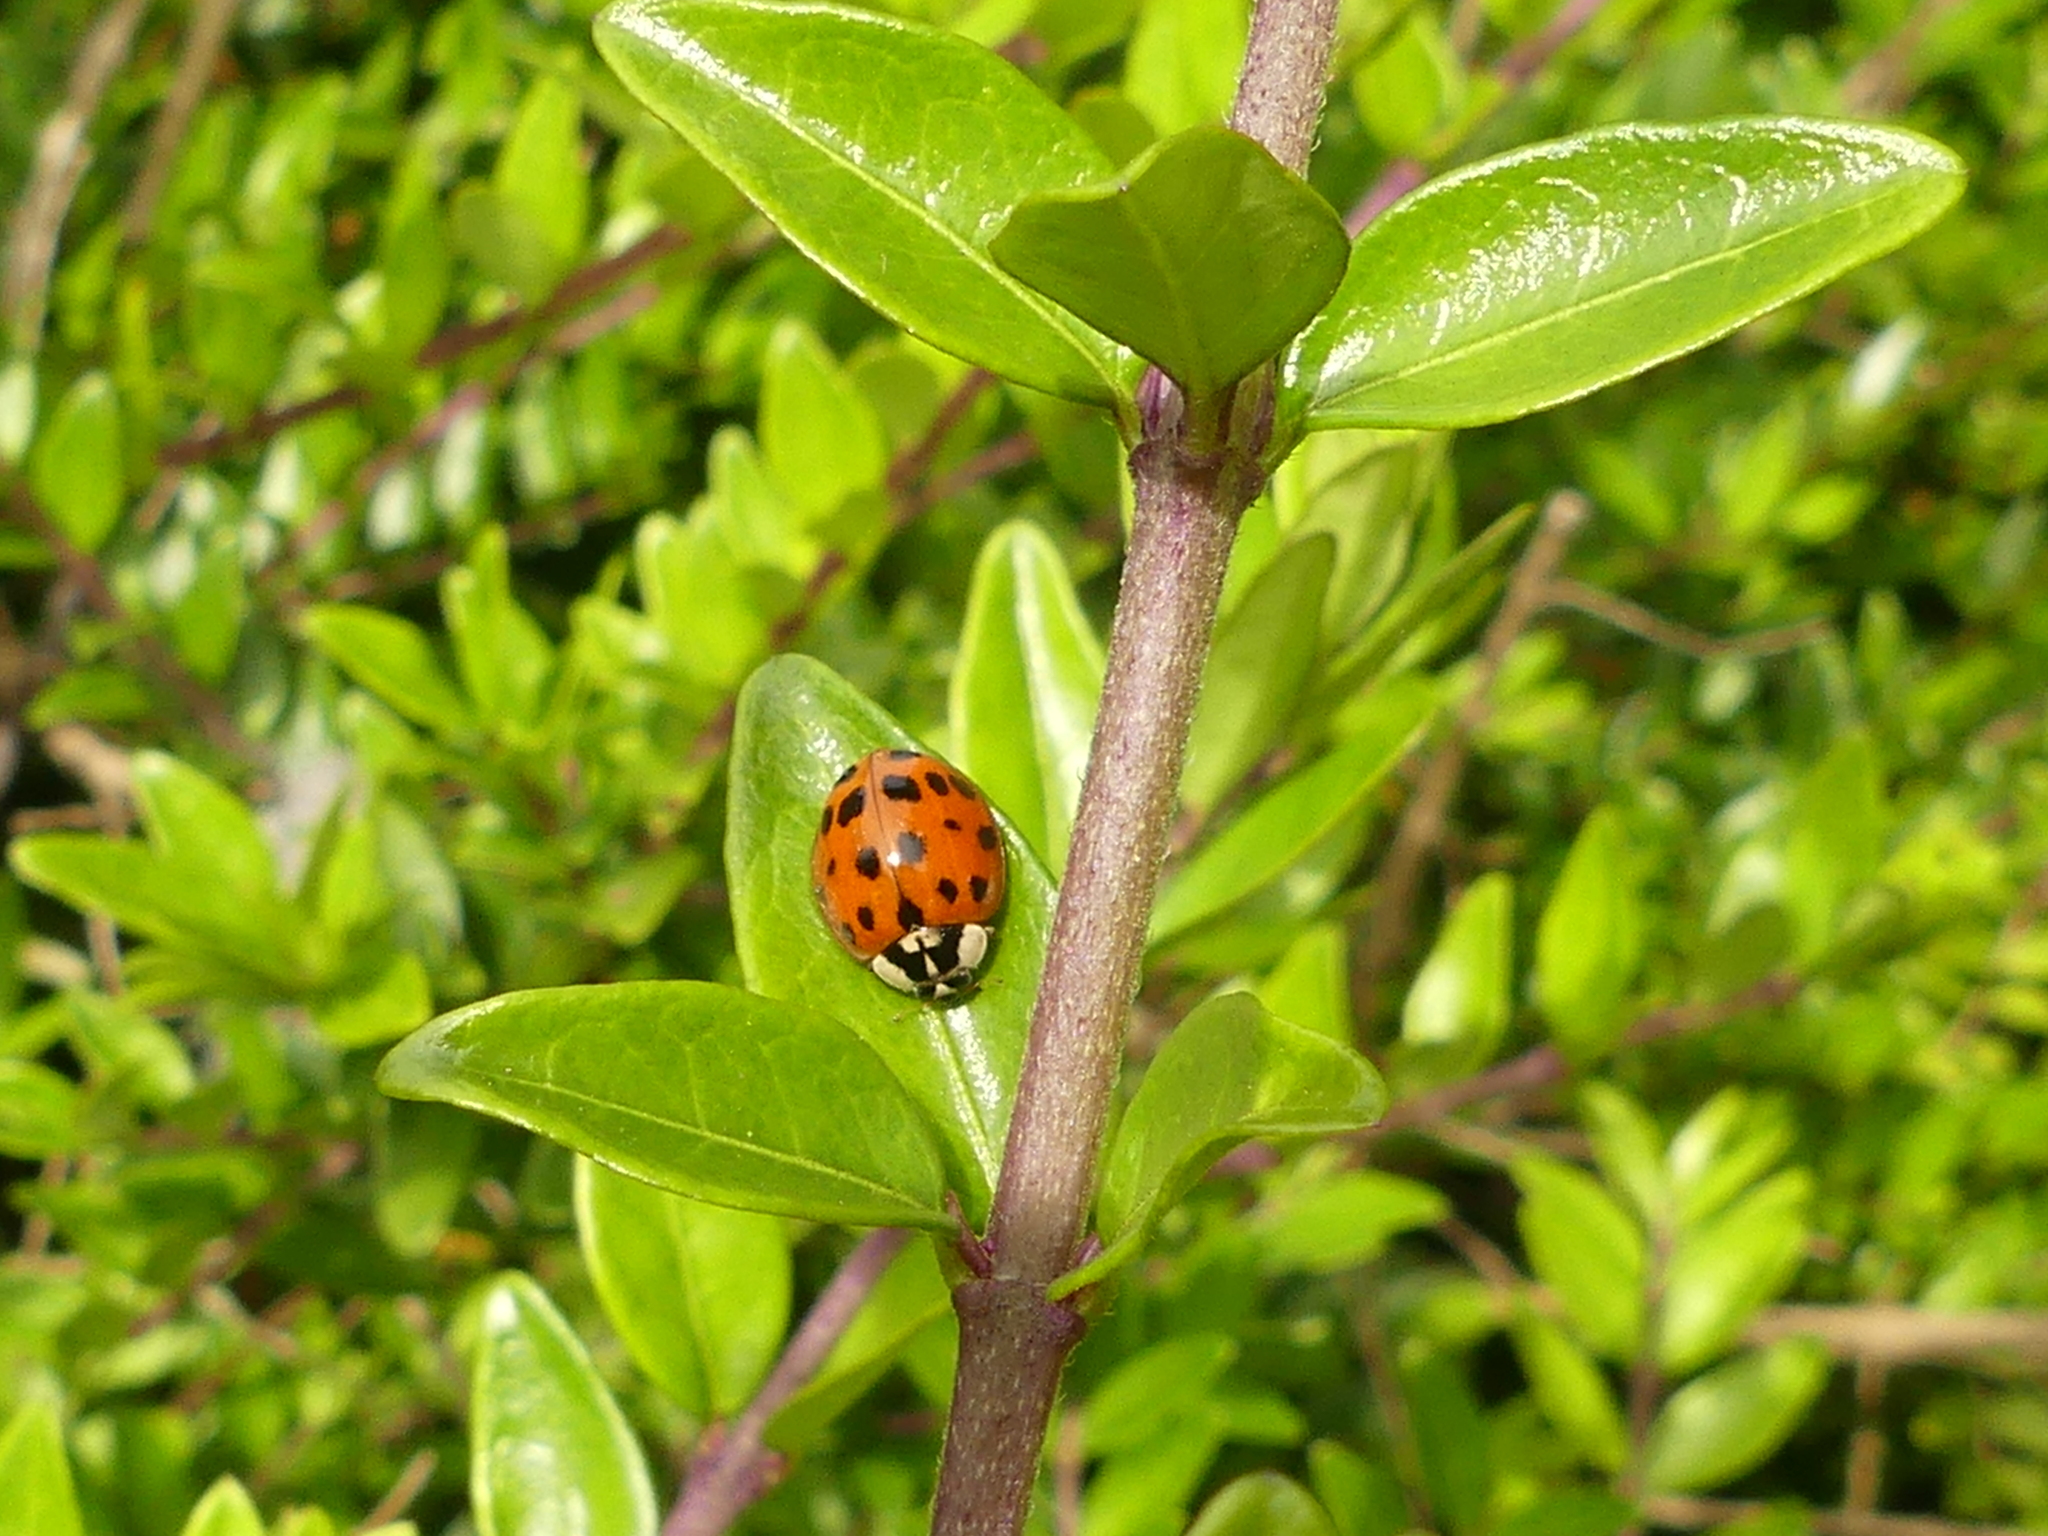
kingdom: Animalia
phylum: Arthropoda
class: Insecta
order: Coleoptera
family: Coccinellidae
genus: Harmonia
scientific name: Harmonia axyridis
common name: Harlequin ladybird
